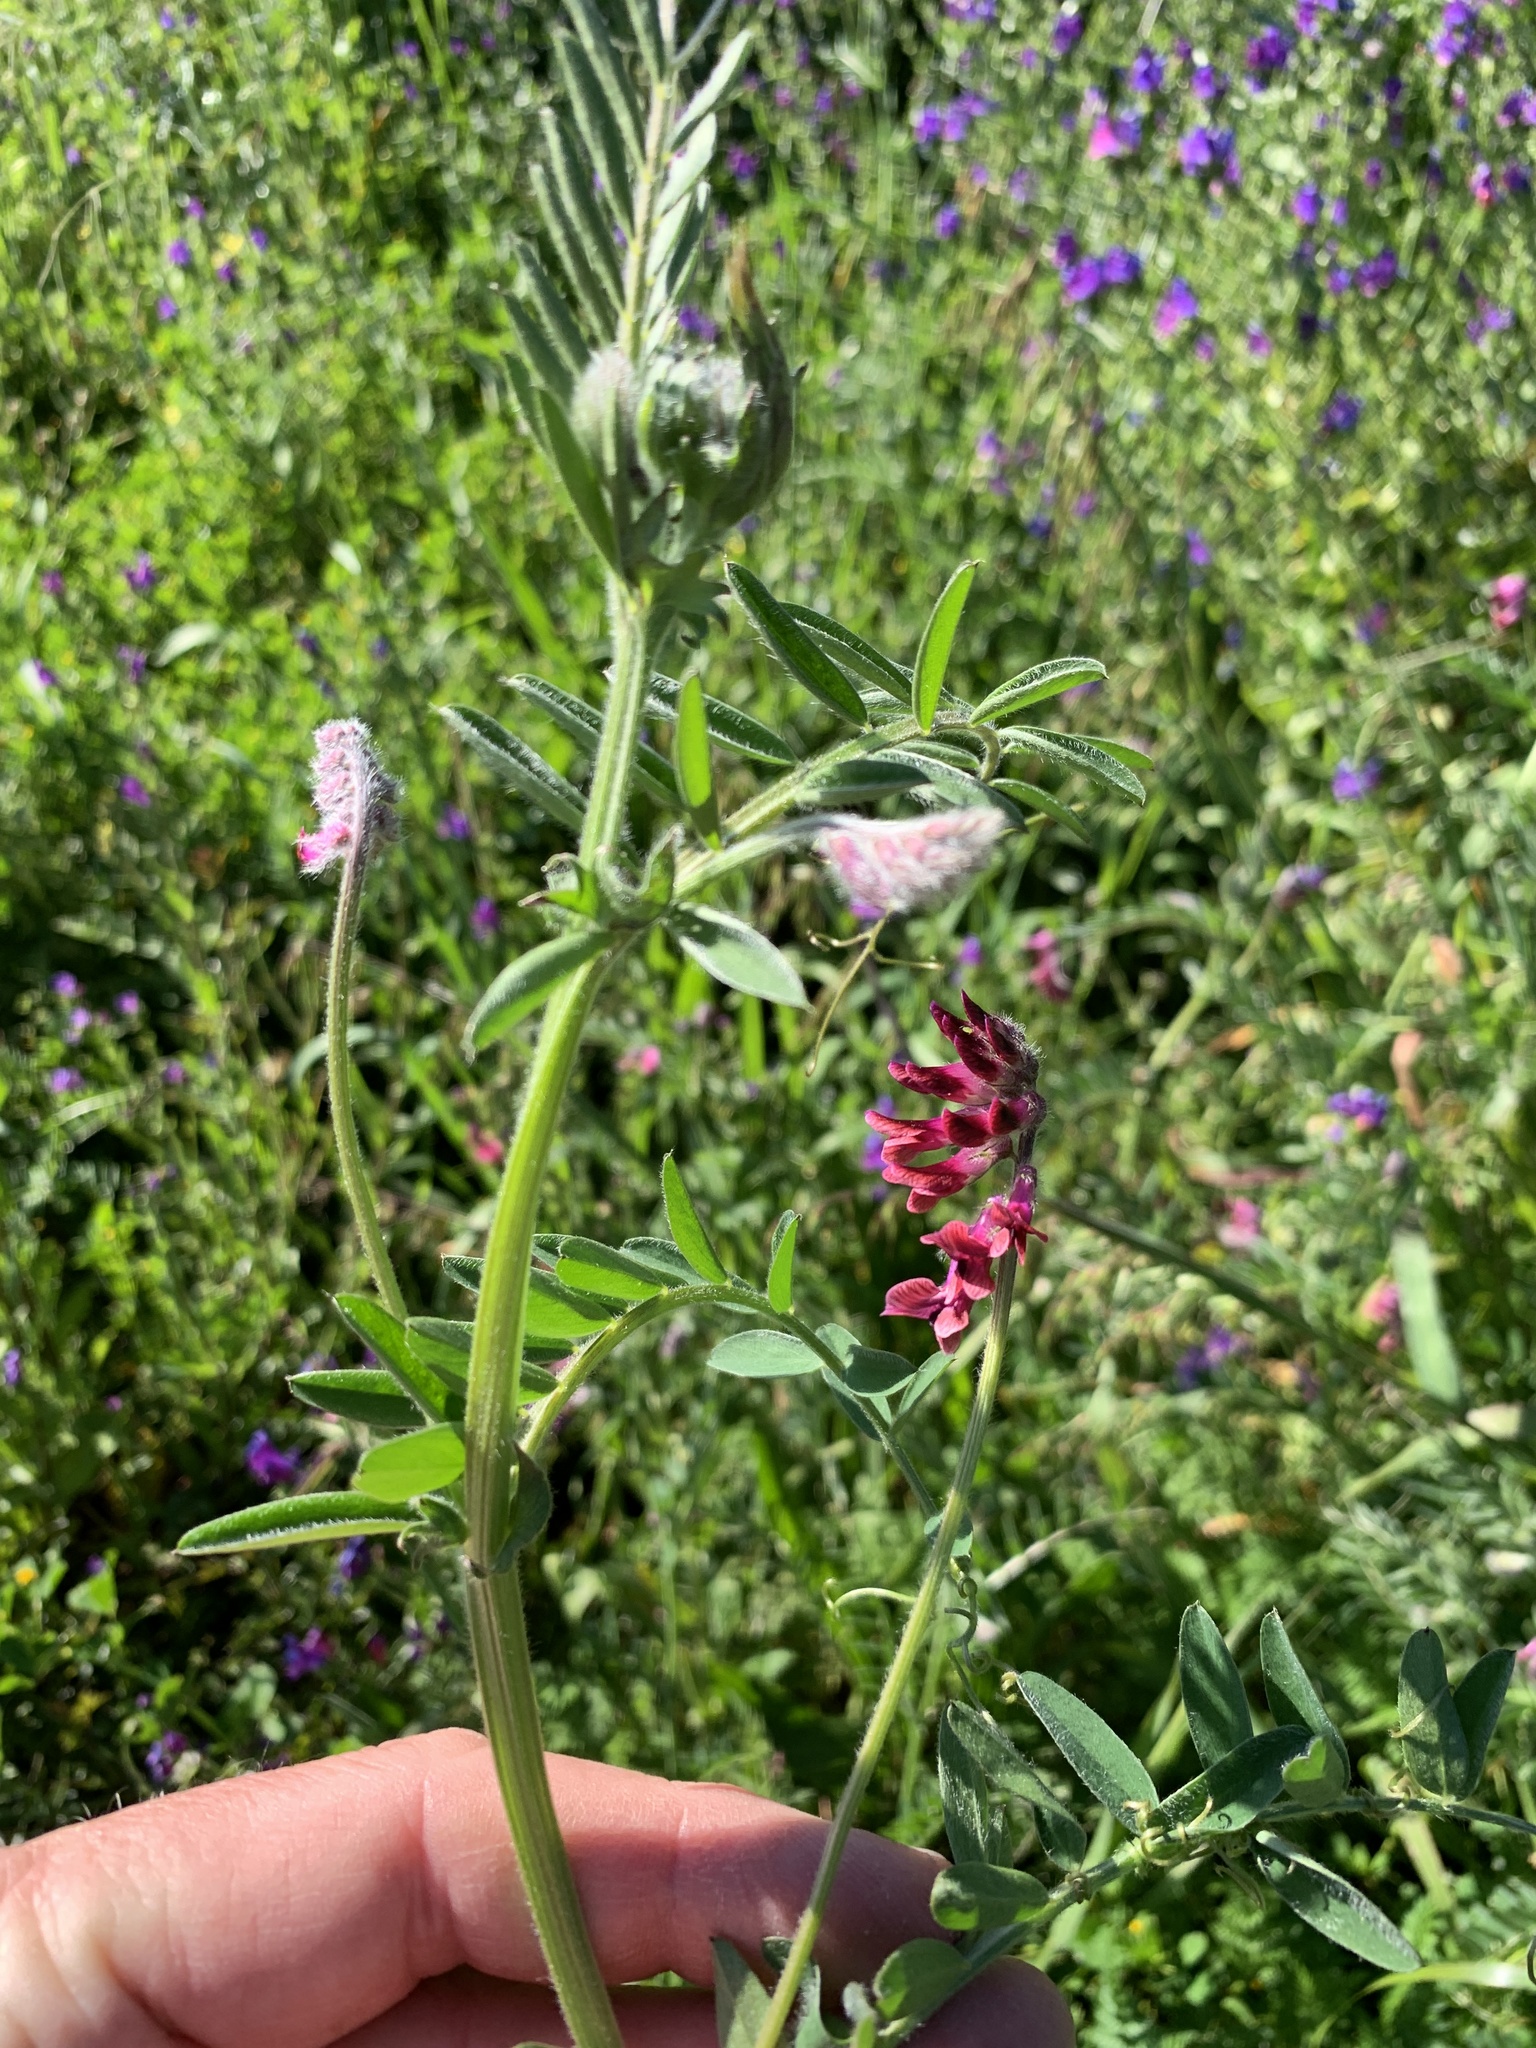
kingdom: Plantae
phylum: Tracheophyta
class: Magnoliopsida
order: Fabales
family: Fabaceae
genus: Vicia
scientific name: Vicia benghalensis
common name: Purple vetch
